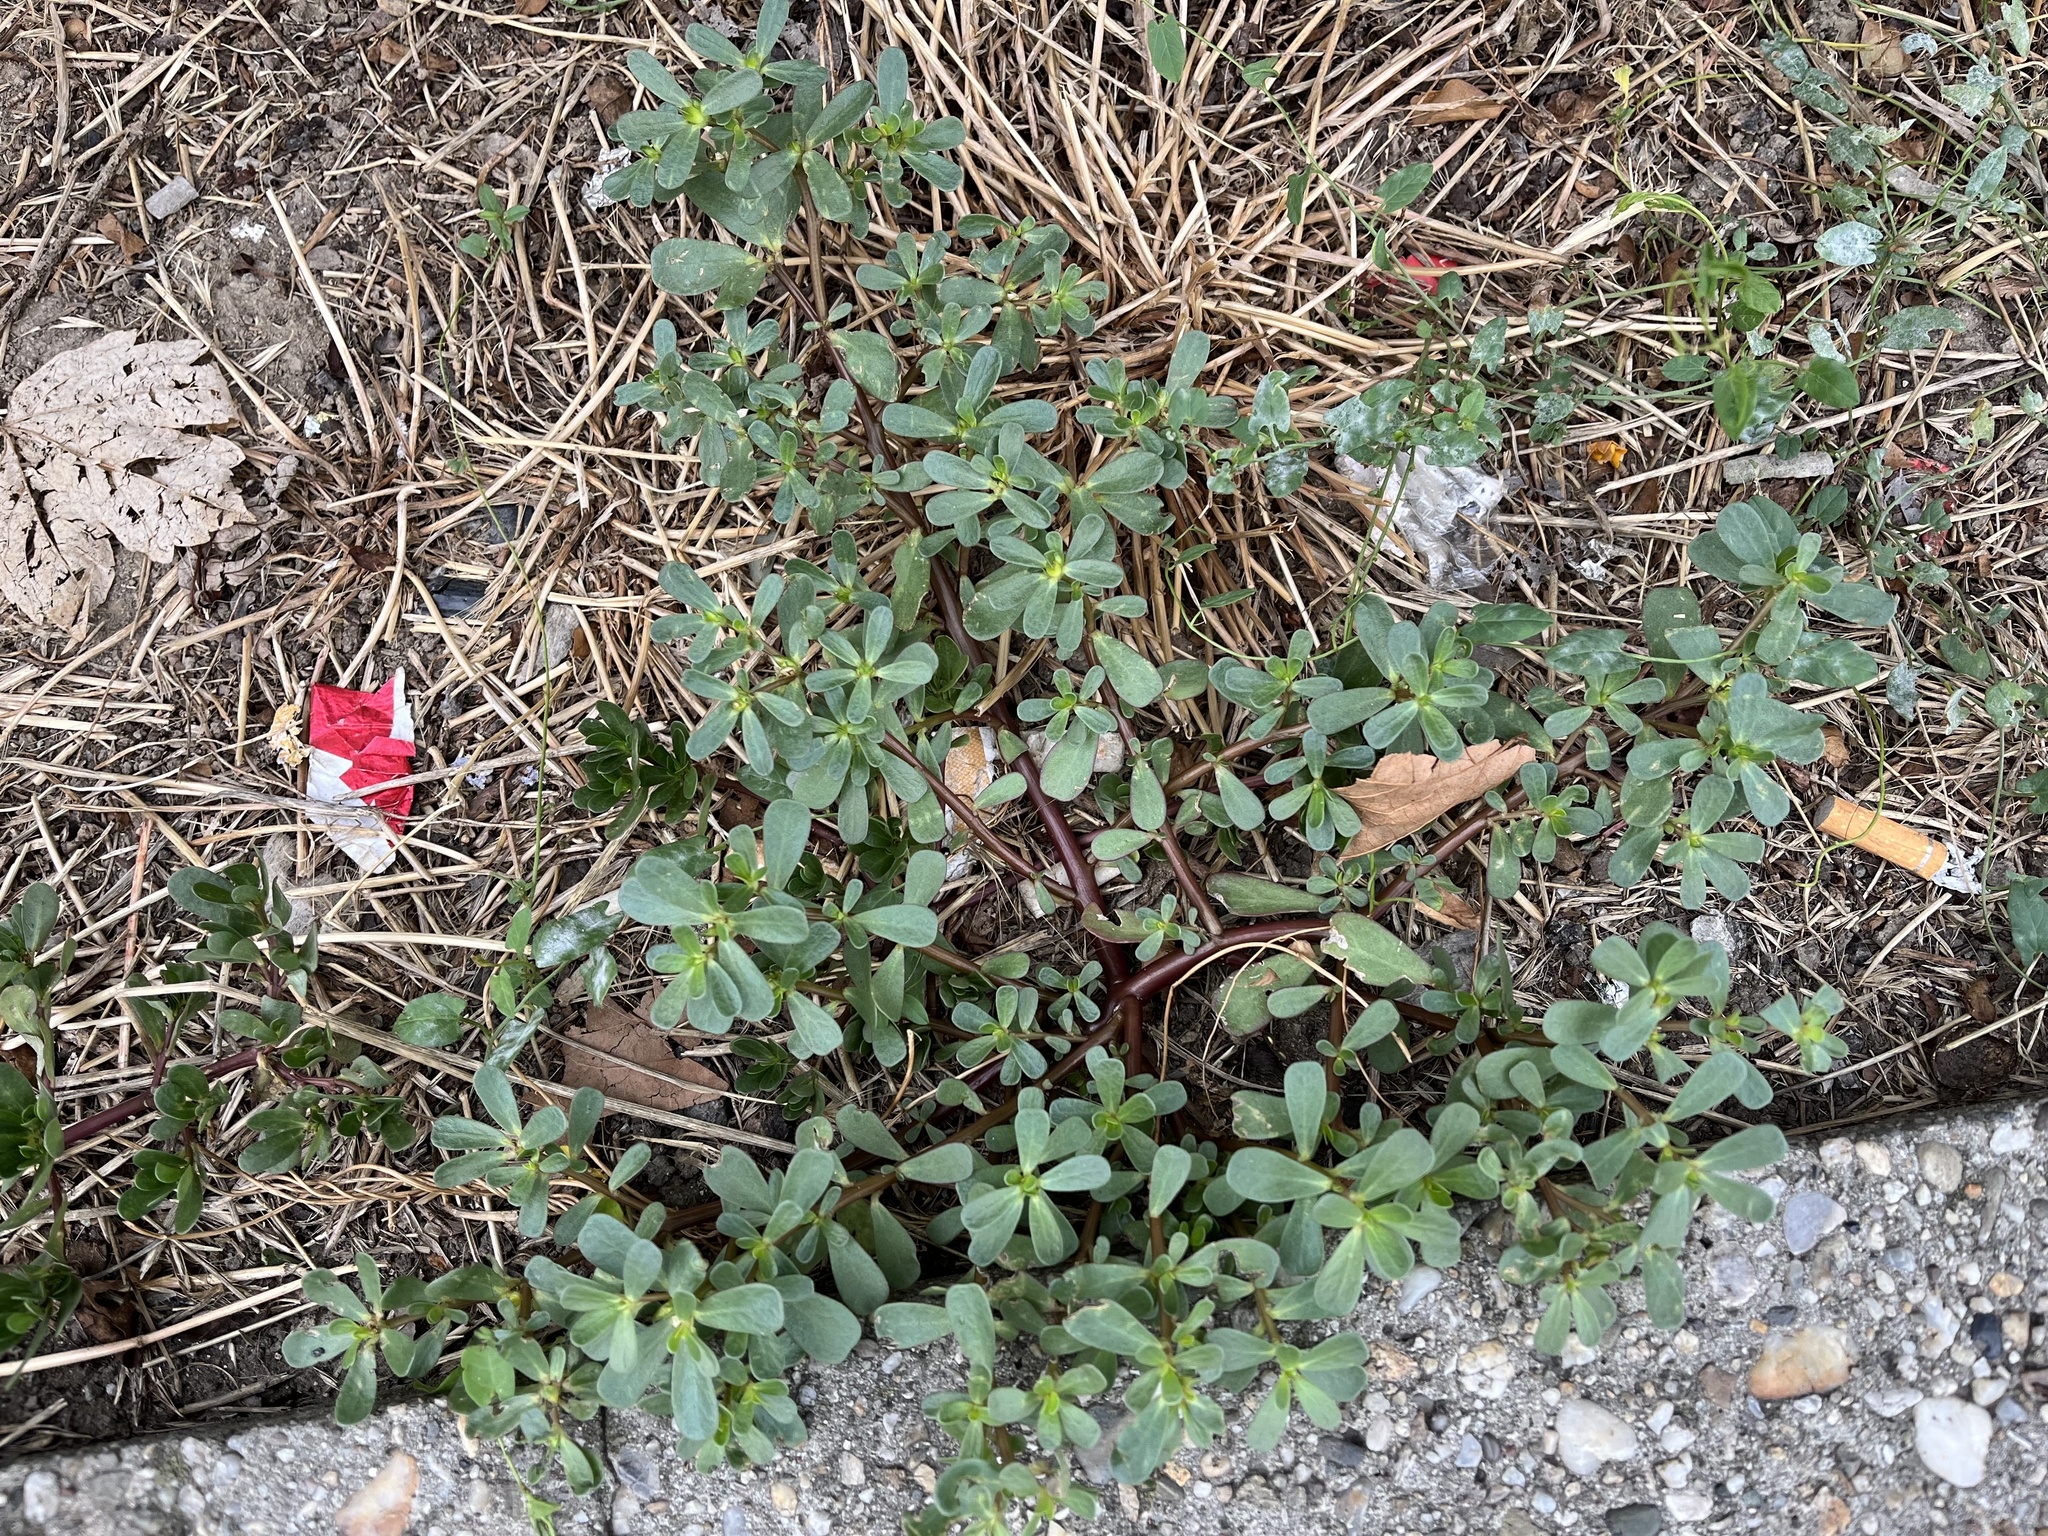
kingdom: Plantae
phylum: Tracheophyta
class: Magnoliopsida
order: Caryophyllales
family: Portulacaceae
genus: Portulaca
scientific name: Portulaca oleracea
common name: Common purslane
